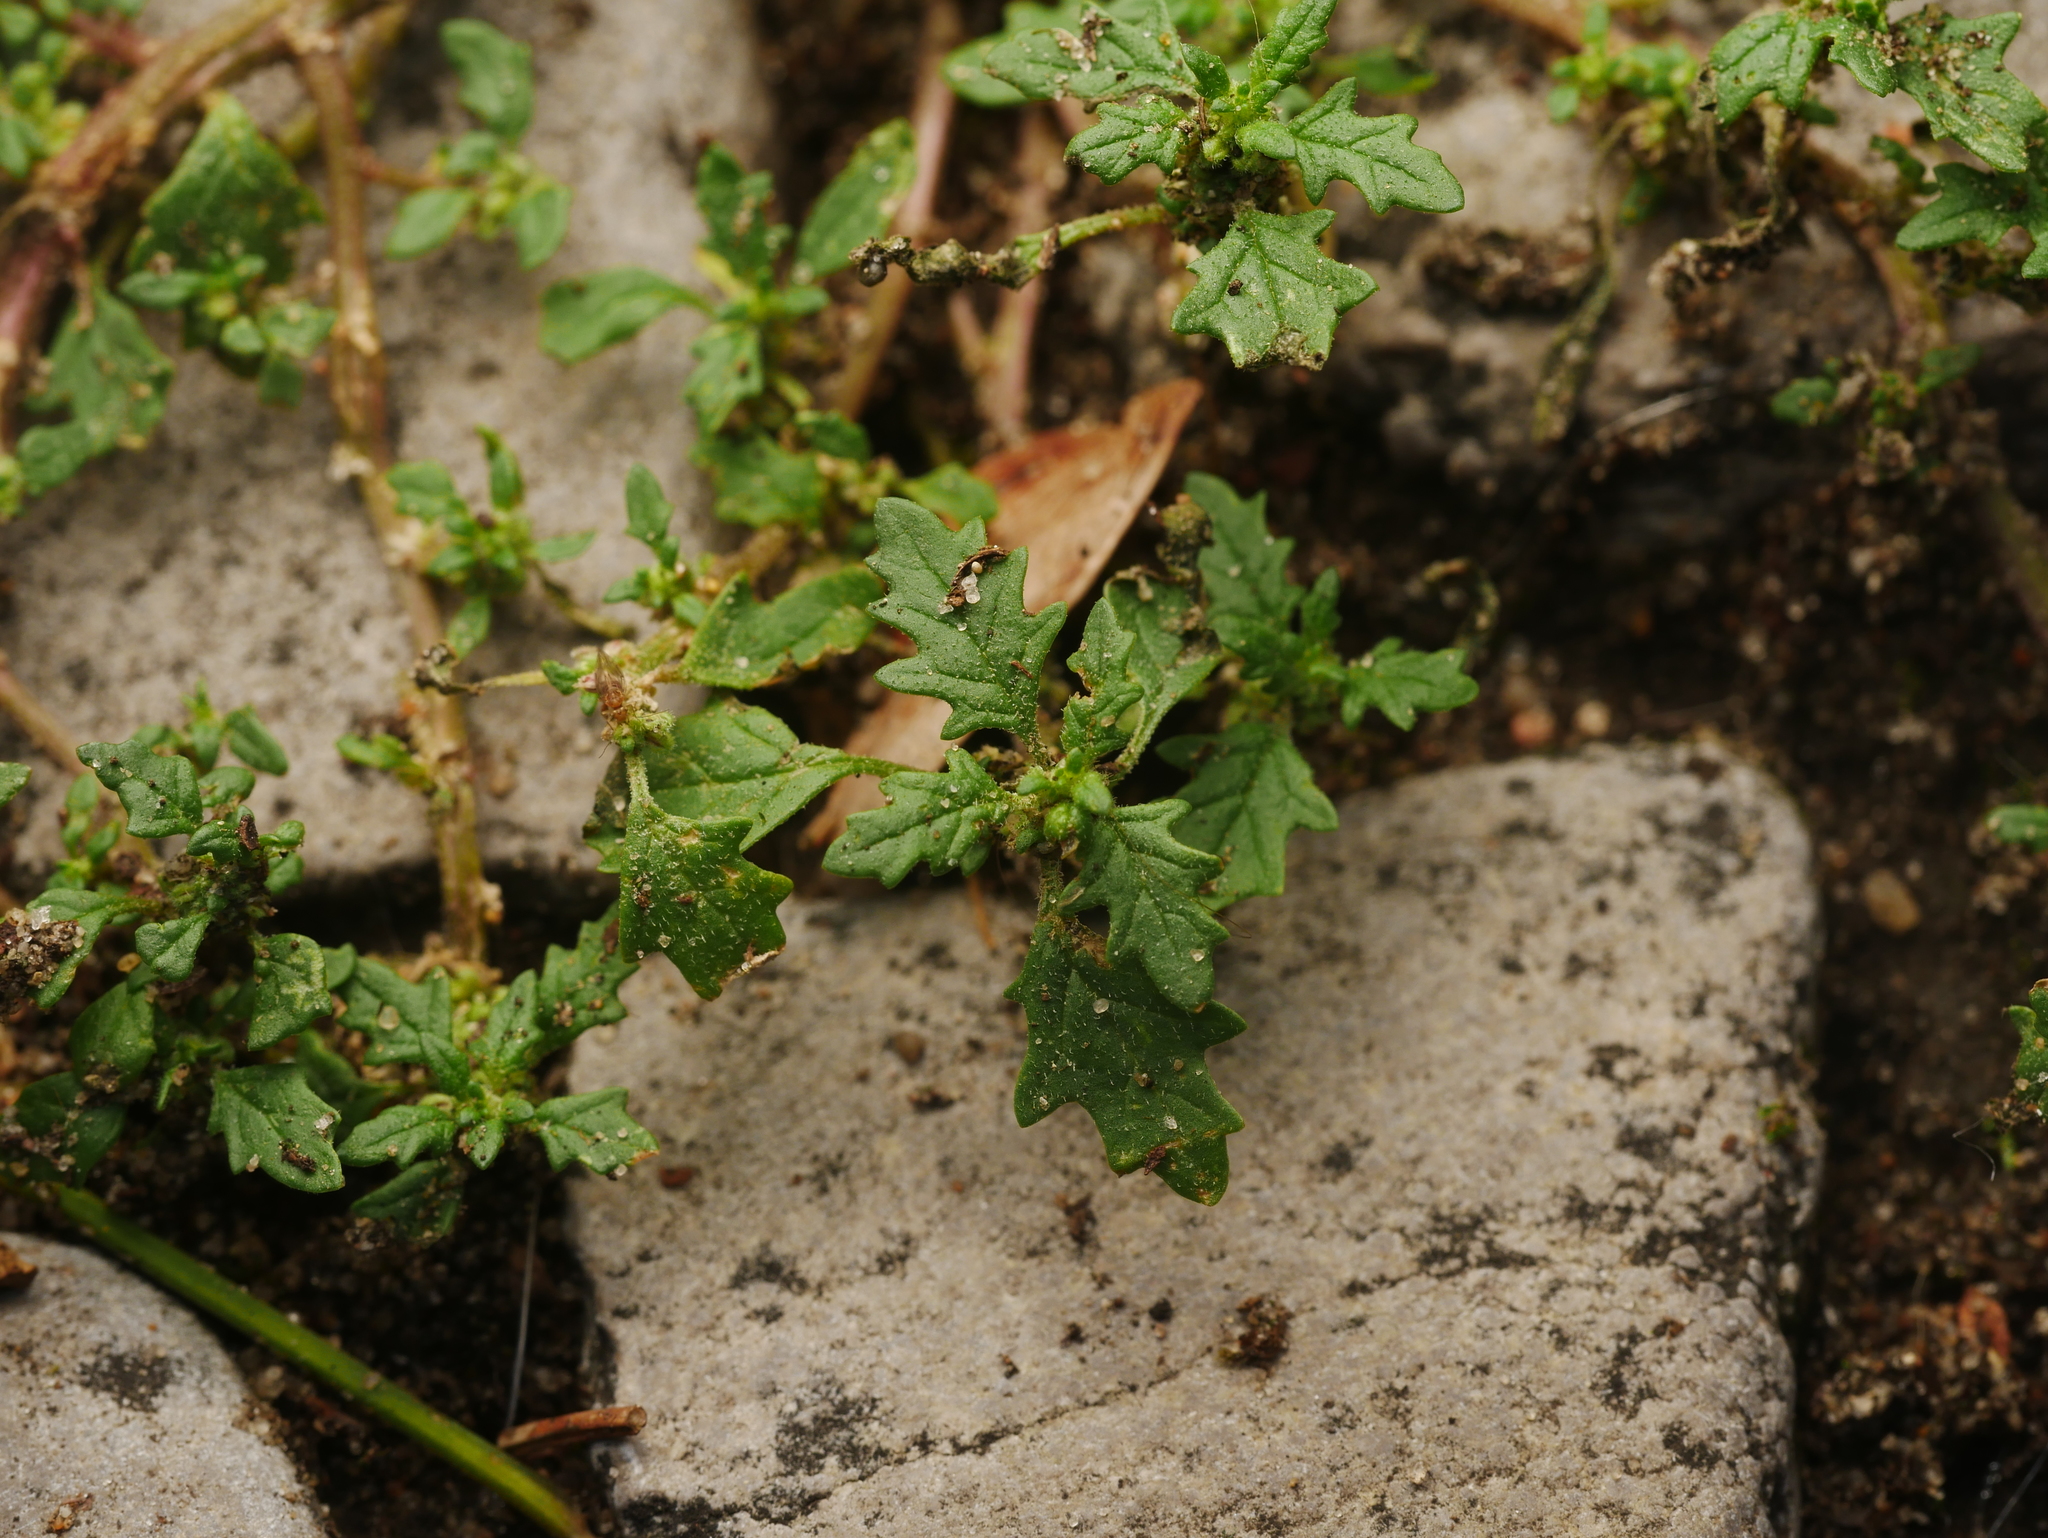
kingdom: Plantae
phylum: Tracheophyta
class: Magnoliopsida
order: Caryophyllales
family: Amaranthaceae
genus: Dysphania
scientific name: Dysphania pumilio
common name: Clammy goosefoot
